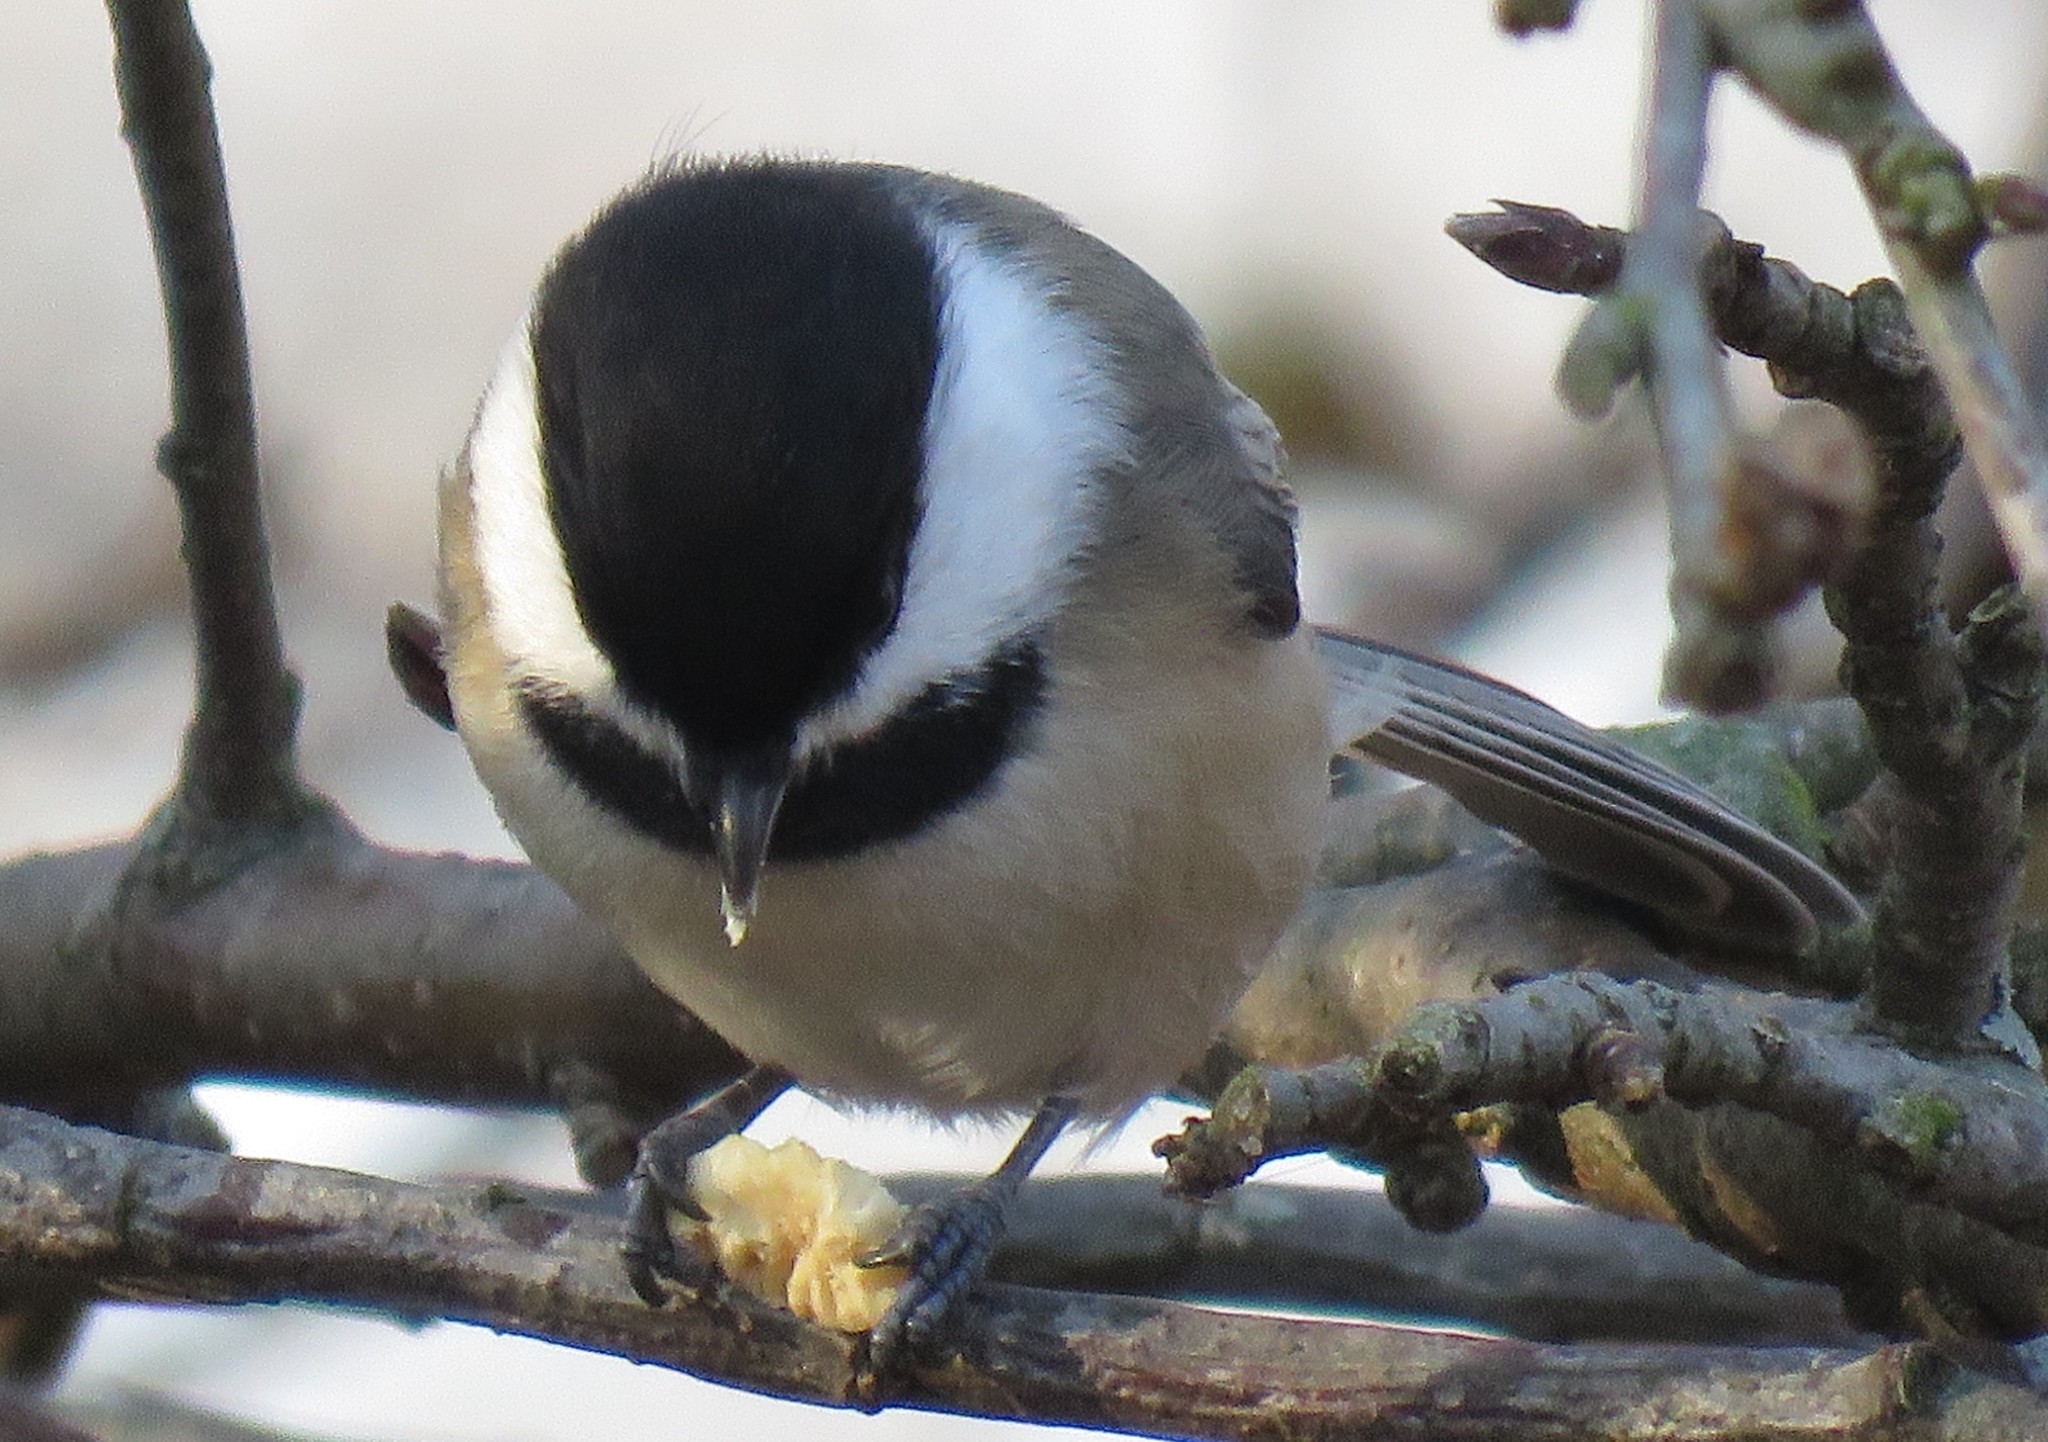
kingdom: Animalia
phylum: Chordata
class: Aves
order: Passeriformes
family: Paridae
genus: Poecile
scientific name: Poecile atricapillus
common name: Black-capped chickadee
